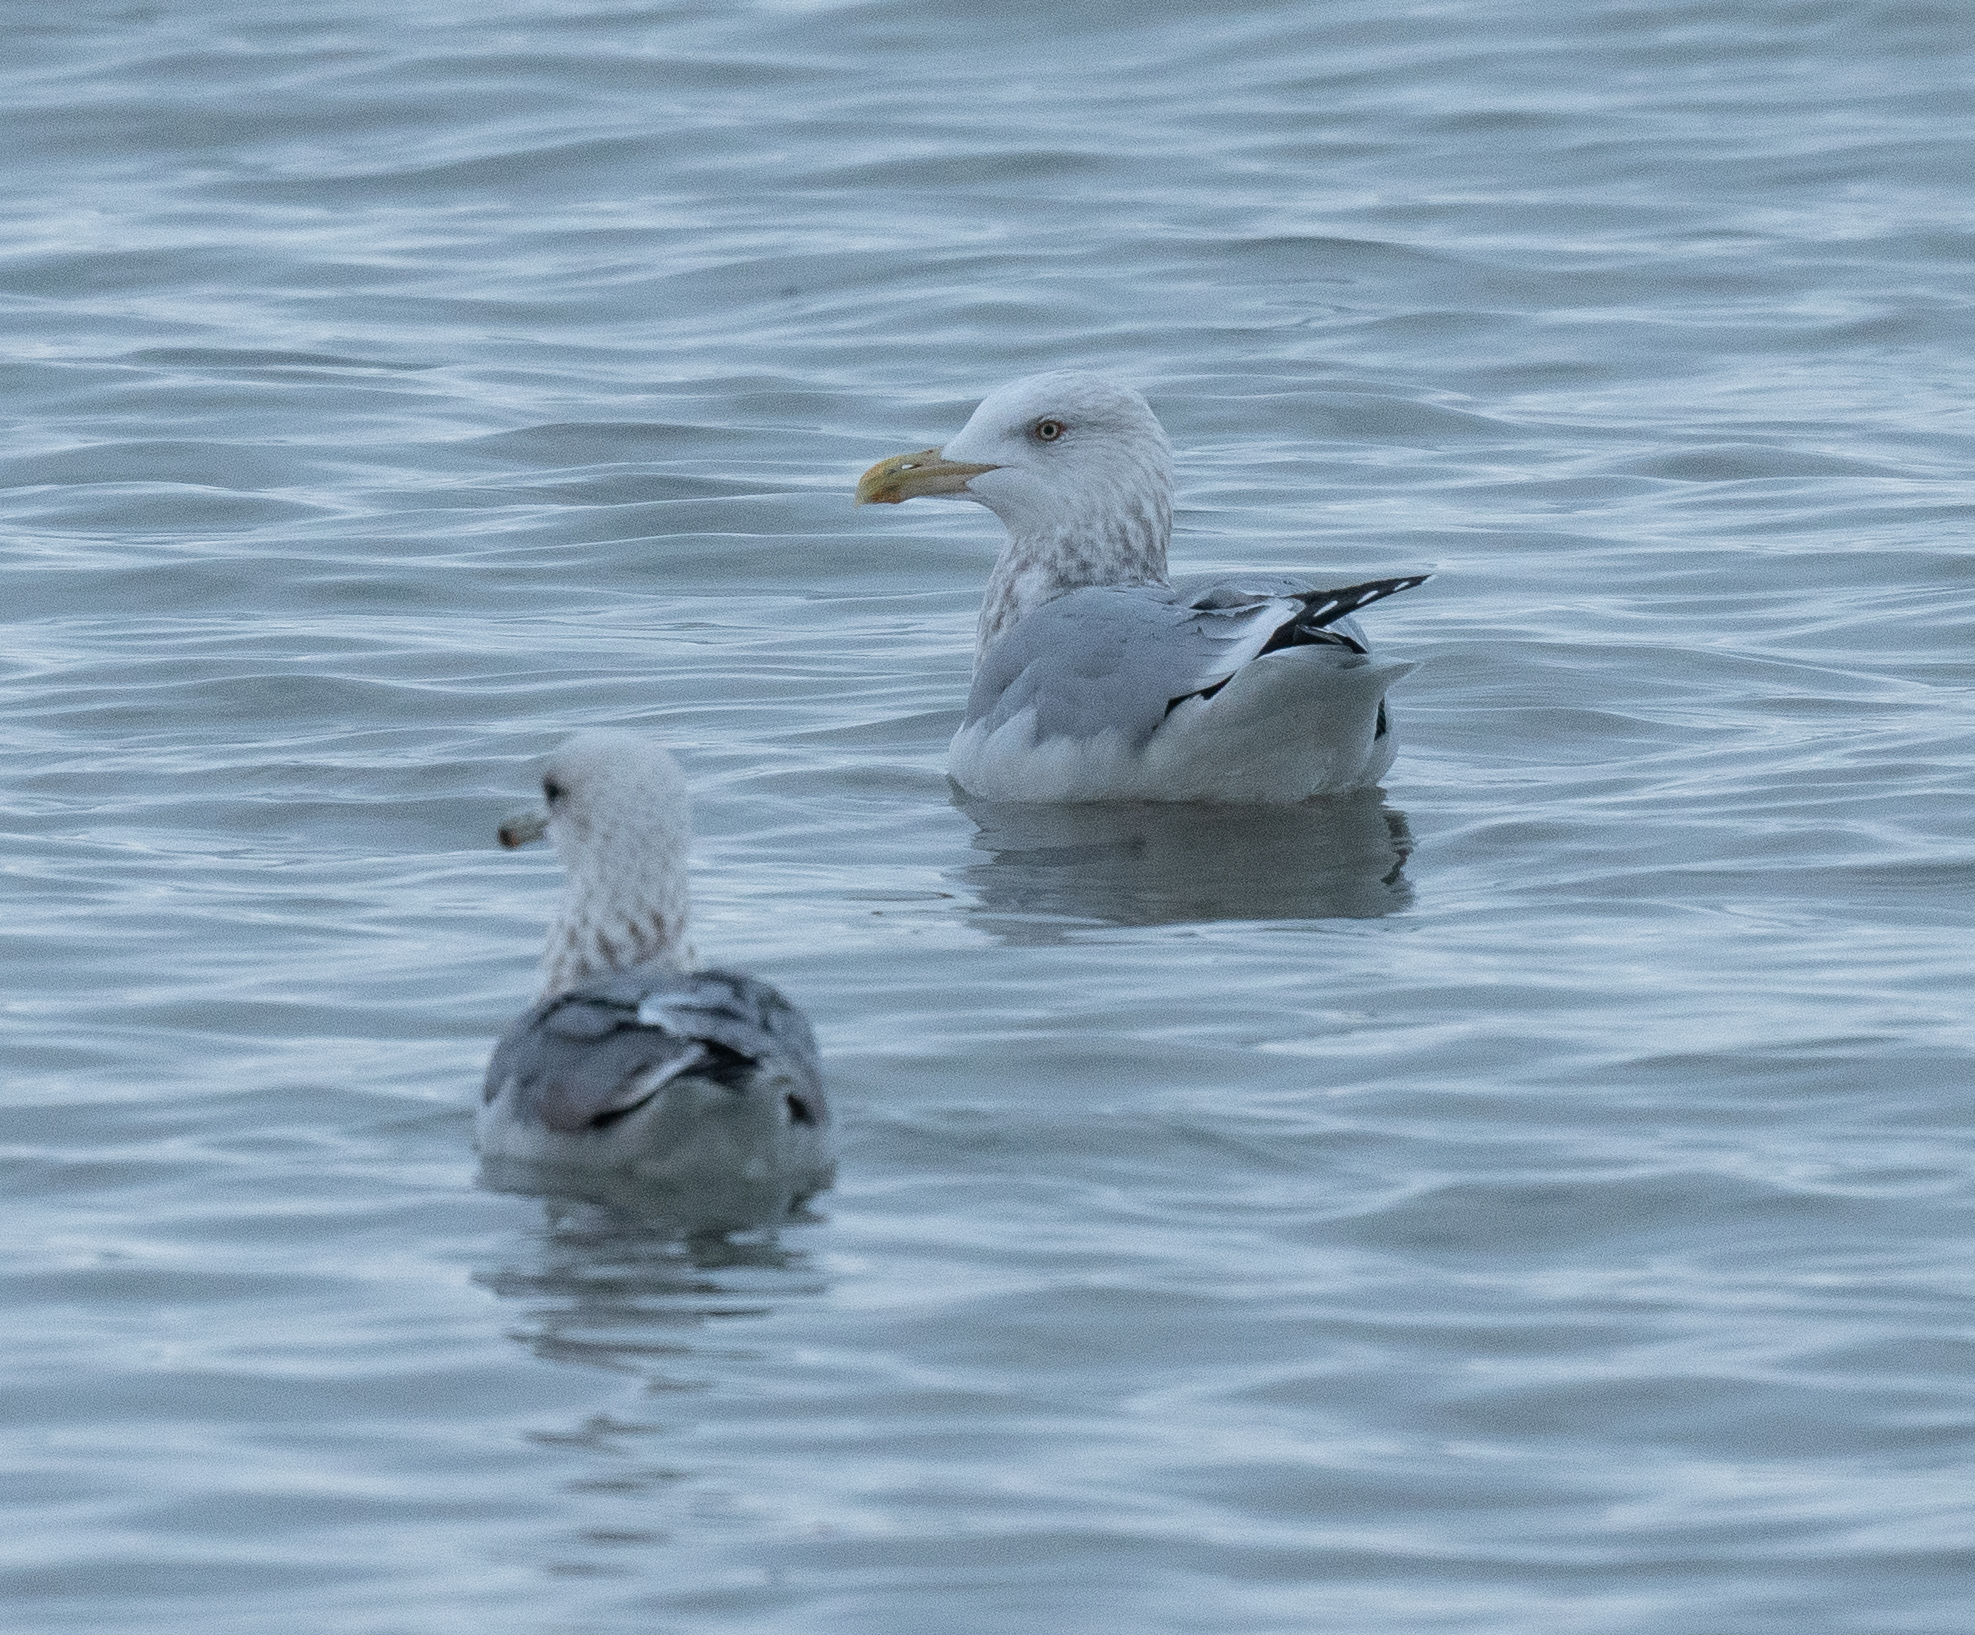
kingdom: Animalia
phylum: Chordata
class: Aves
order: Charadriiformes
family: Laridae
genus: Larus
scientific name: Larus argentatus
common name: Herring gull
